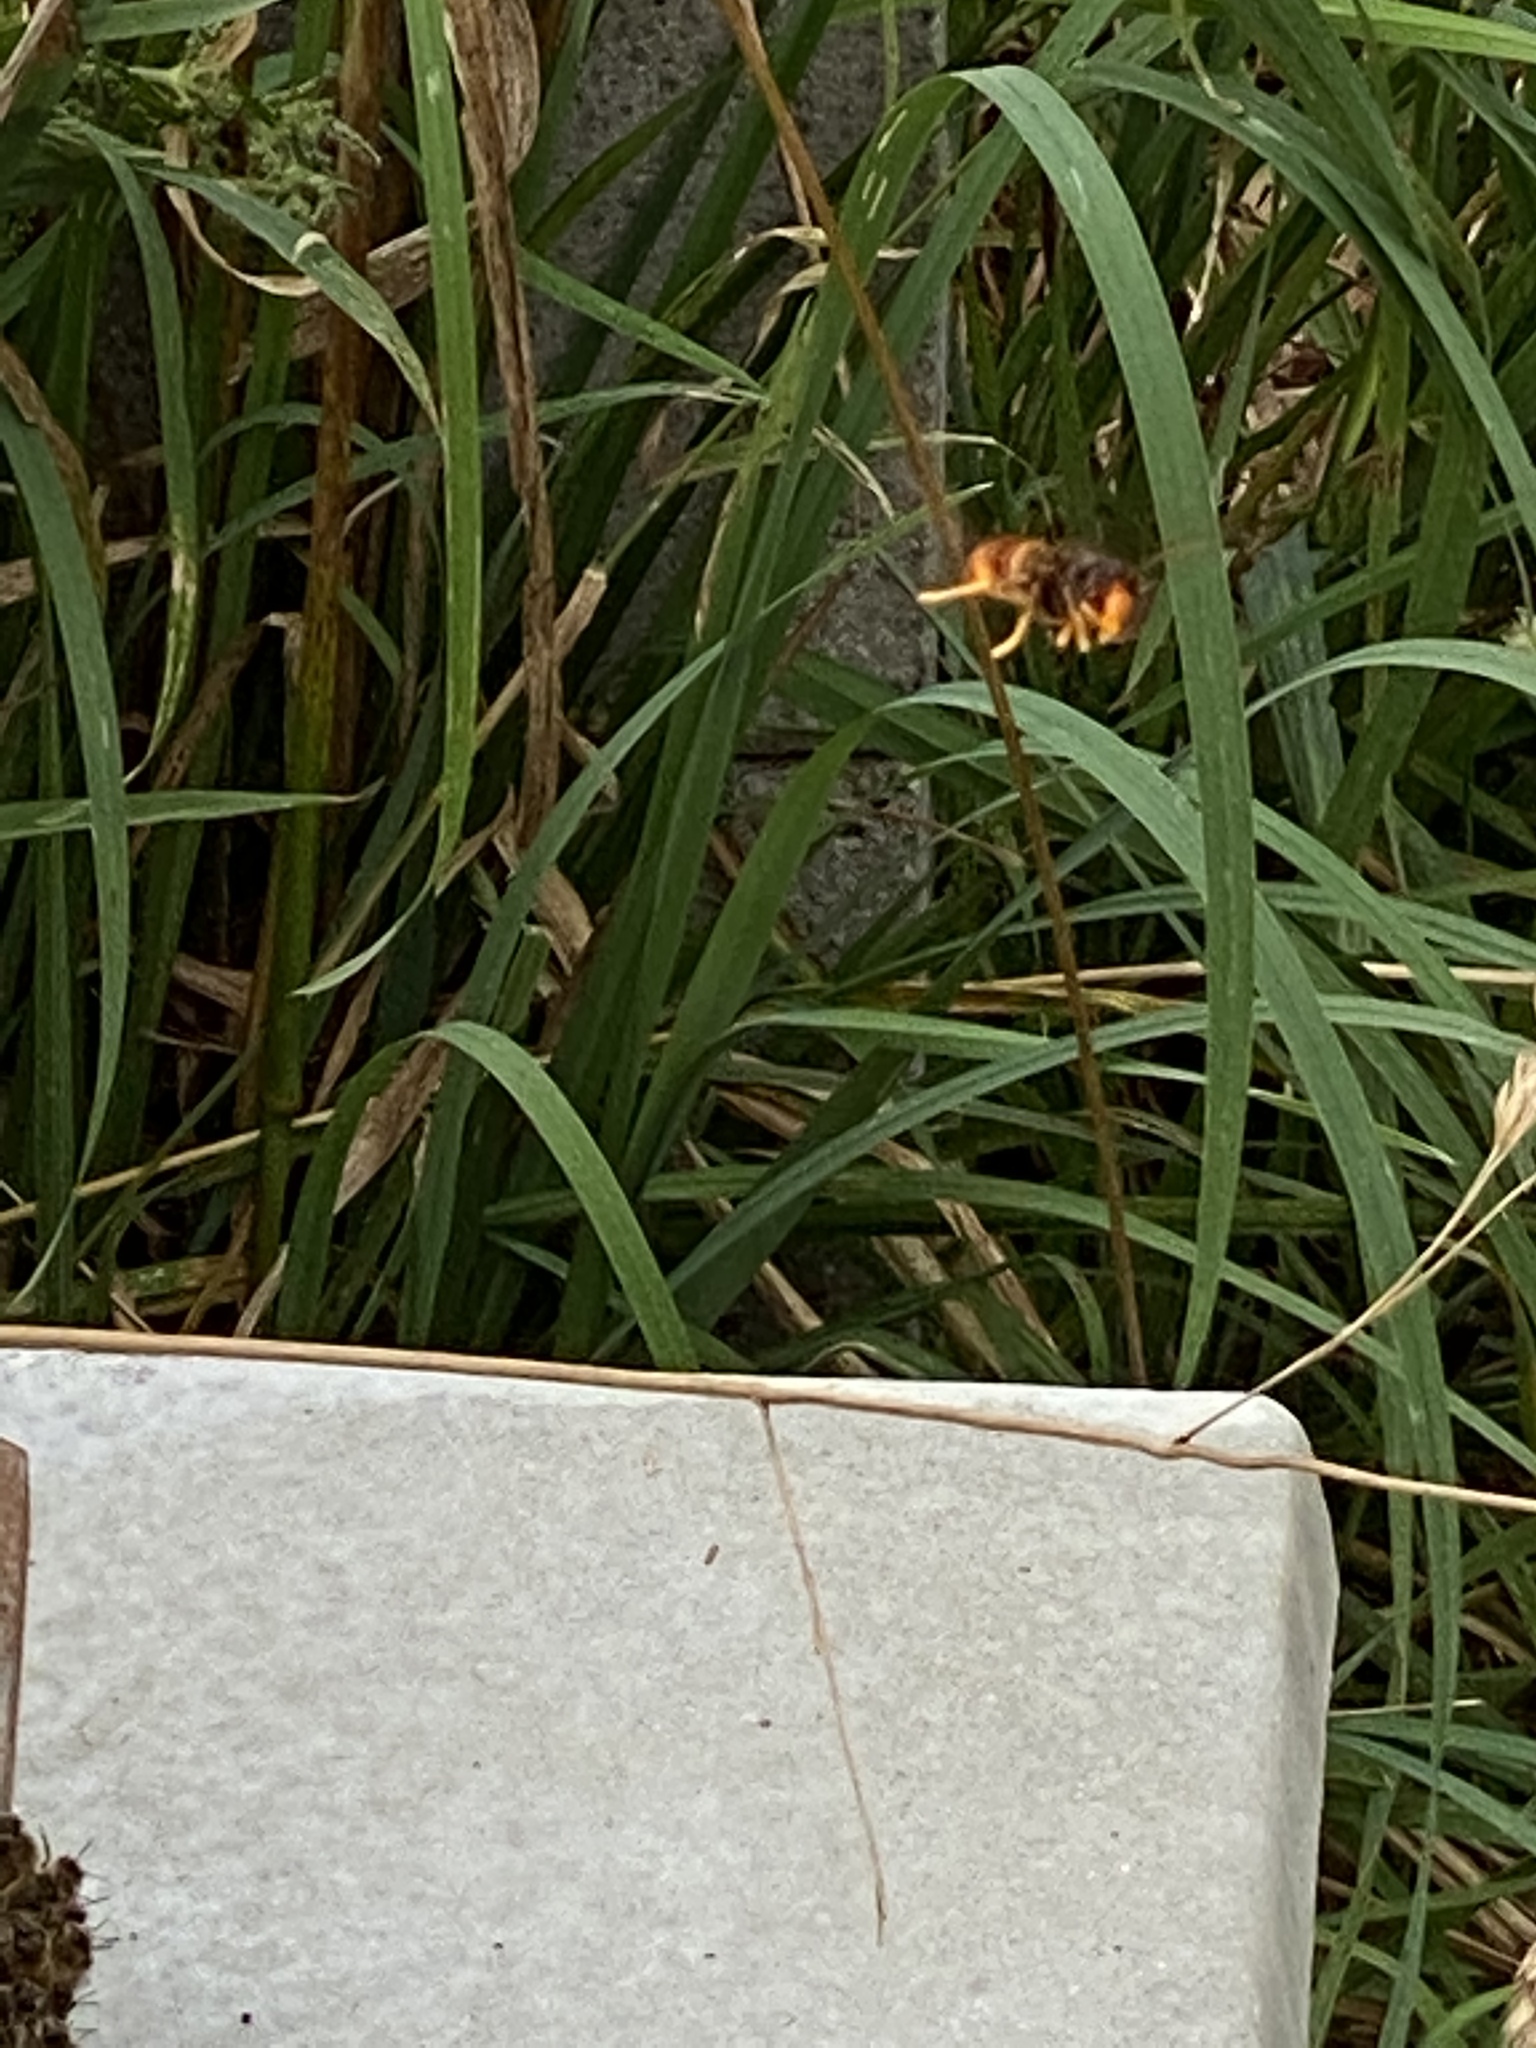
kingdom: Animalia
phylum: Arthropoda
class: Insecta
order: Hymenoptera
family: Vespidae
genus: Vespa
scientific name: Vespa velutina
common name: Asian hornet
